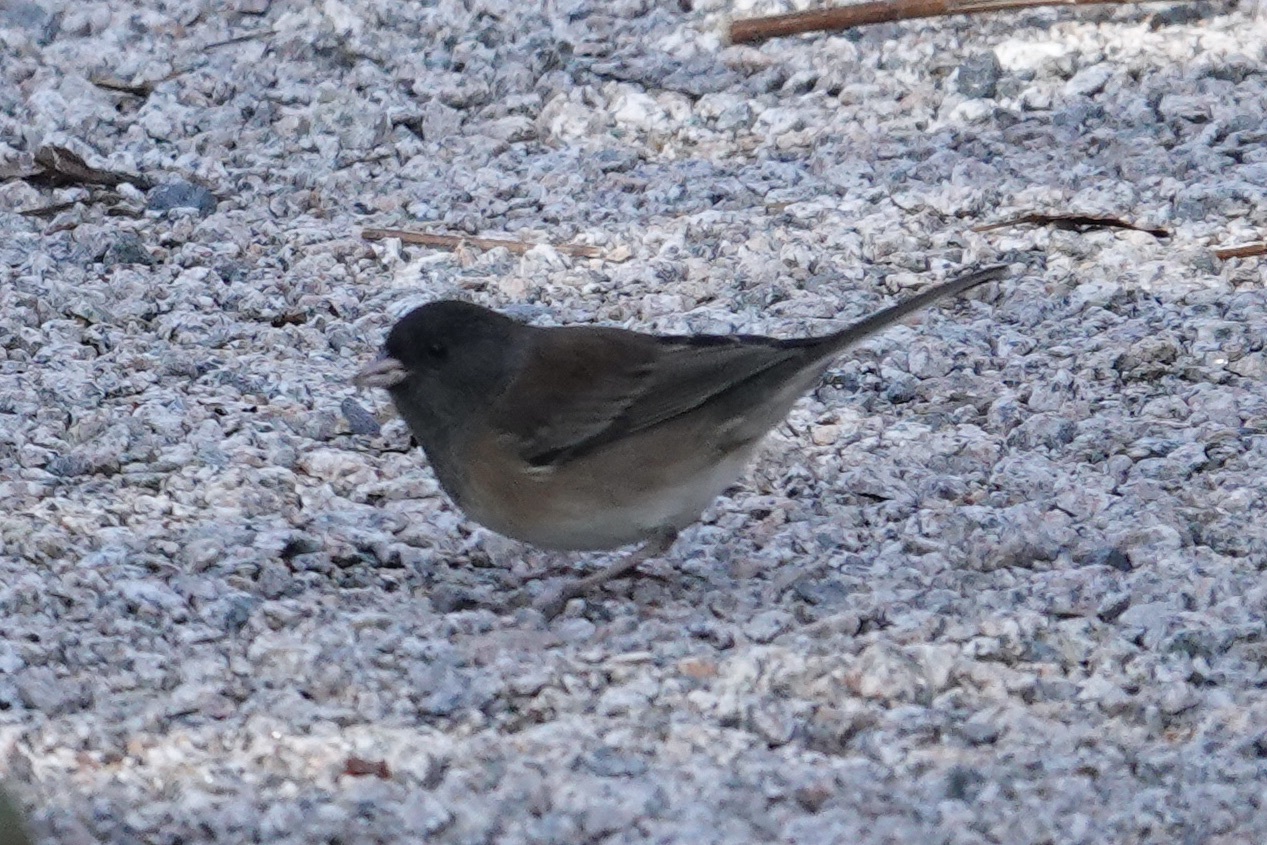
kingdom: Animalia
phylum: Chordata
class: Aves
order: Passeriformes
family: Passerellidae
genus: Junco
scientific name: Junco hyemalis
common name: Dark-eyed junco
